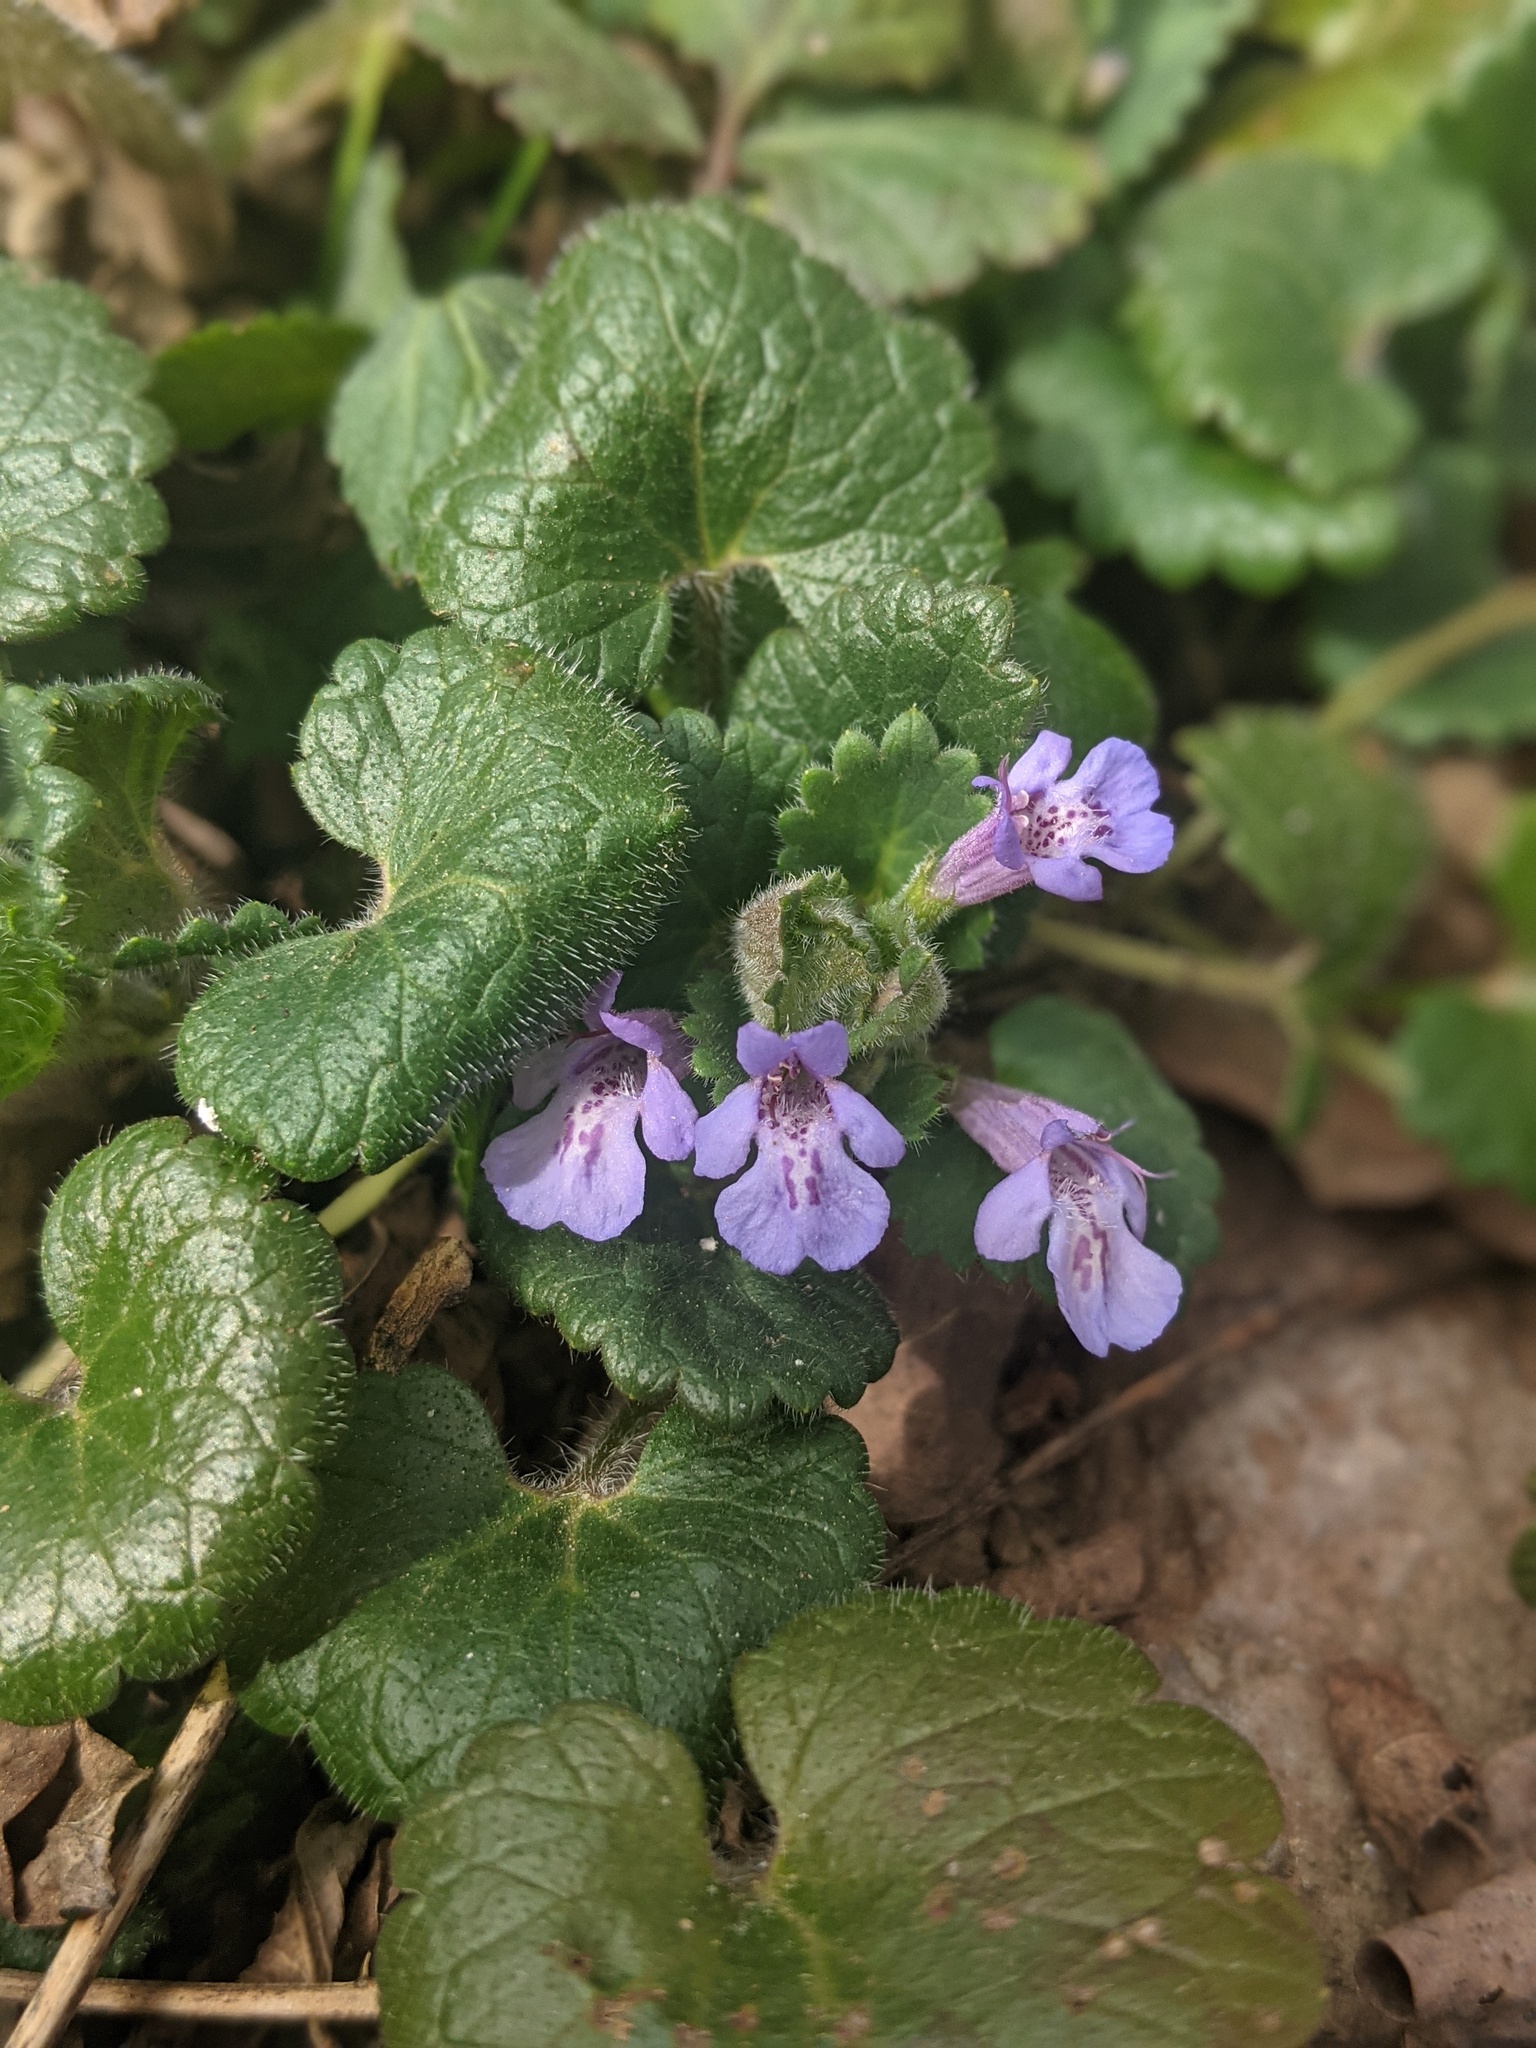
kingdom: Plantae
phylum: Tracheophyta
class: Magnoliopsida
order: Lamiales
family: Lamiaceae
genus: Glechoma
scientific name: Glechoma hederacea
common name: Ground ivy
